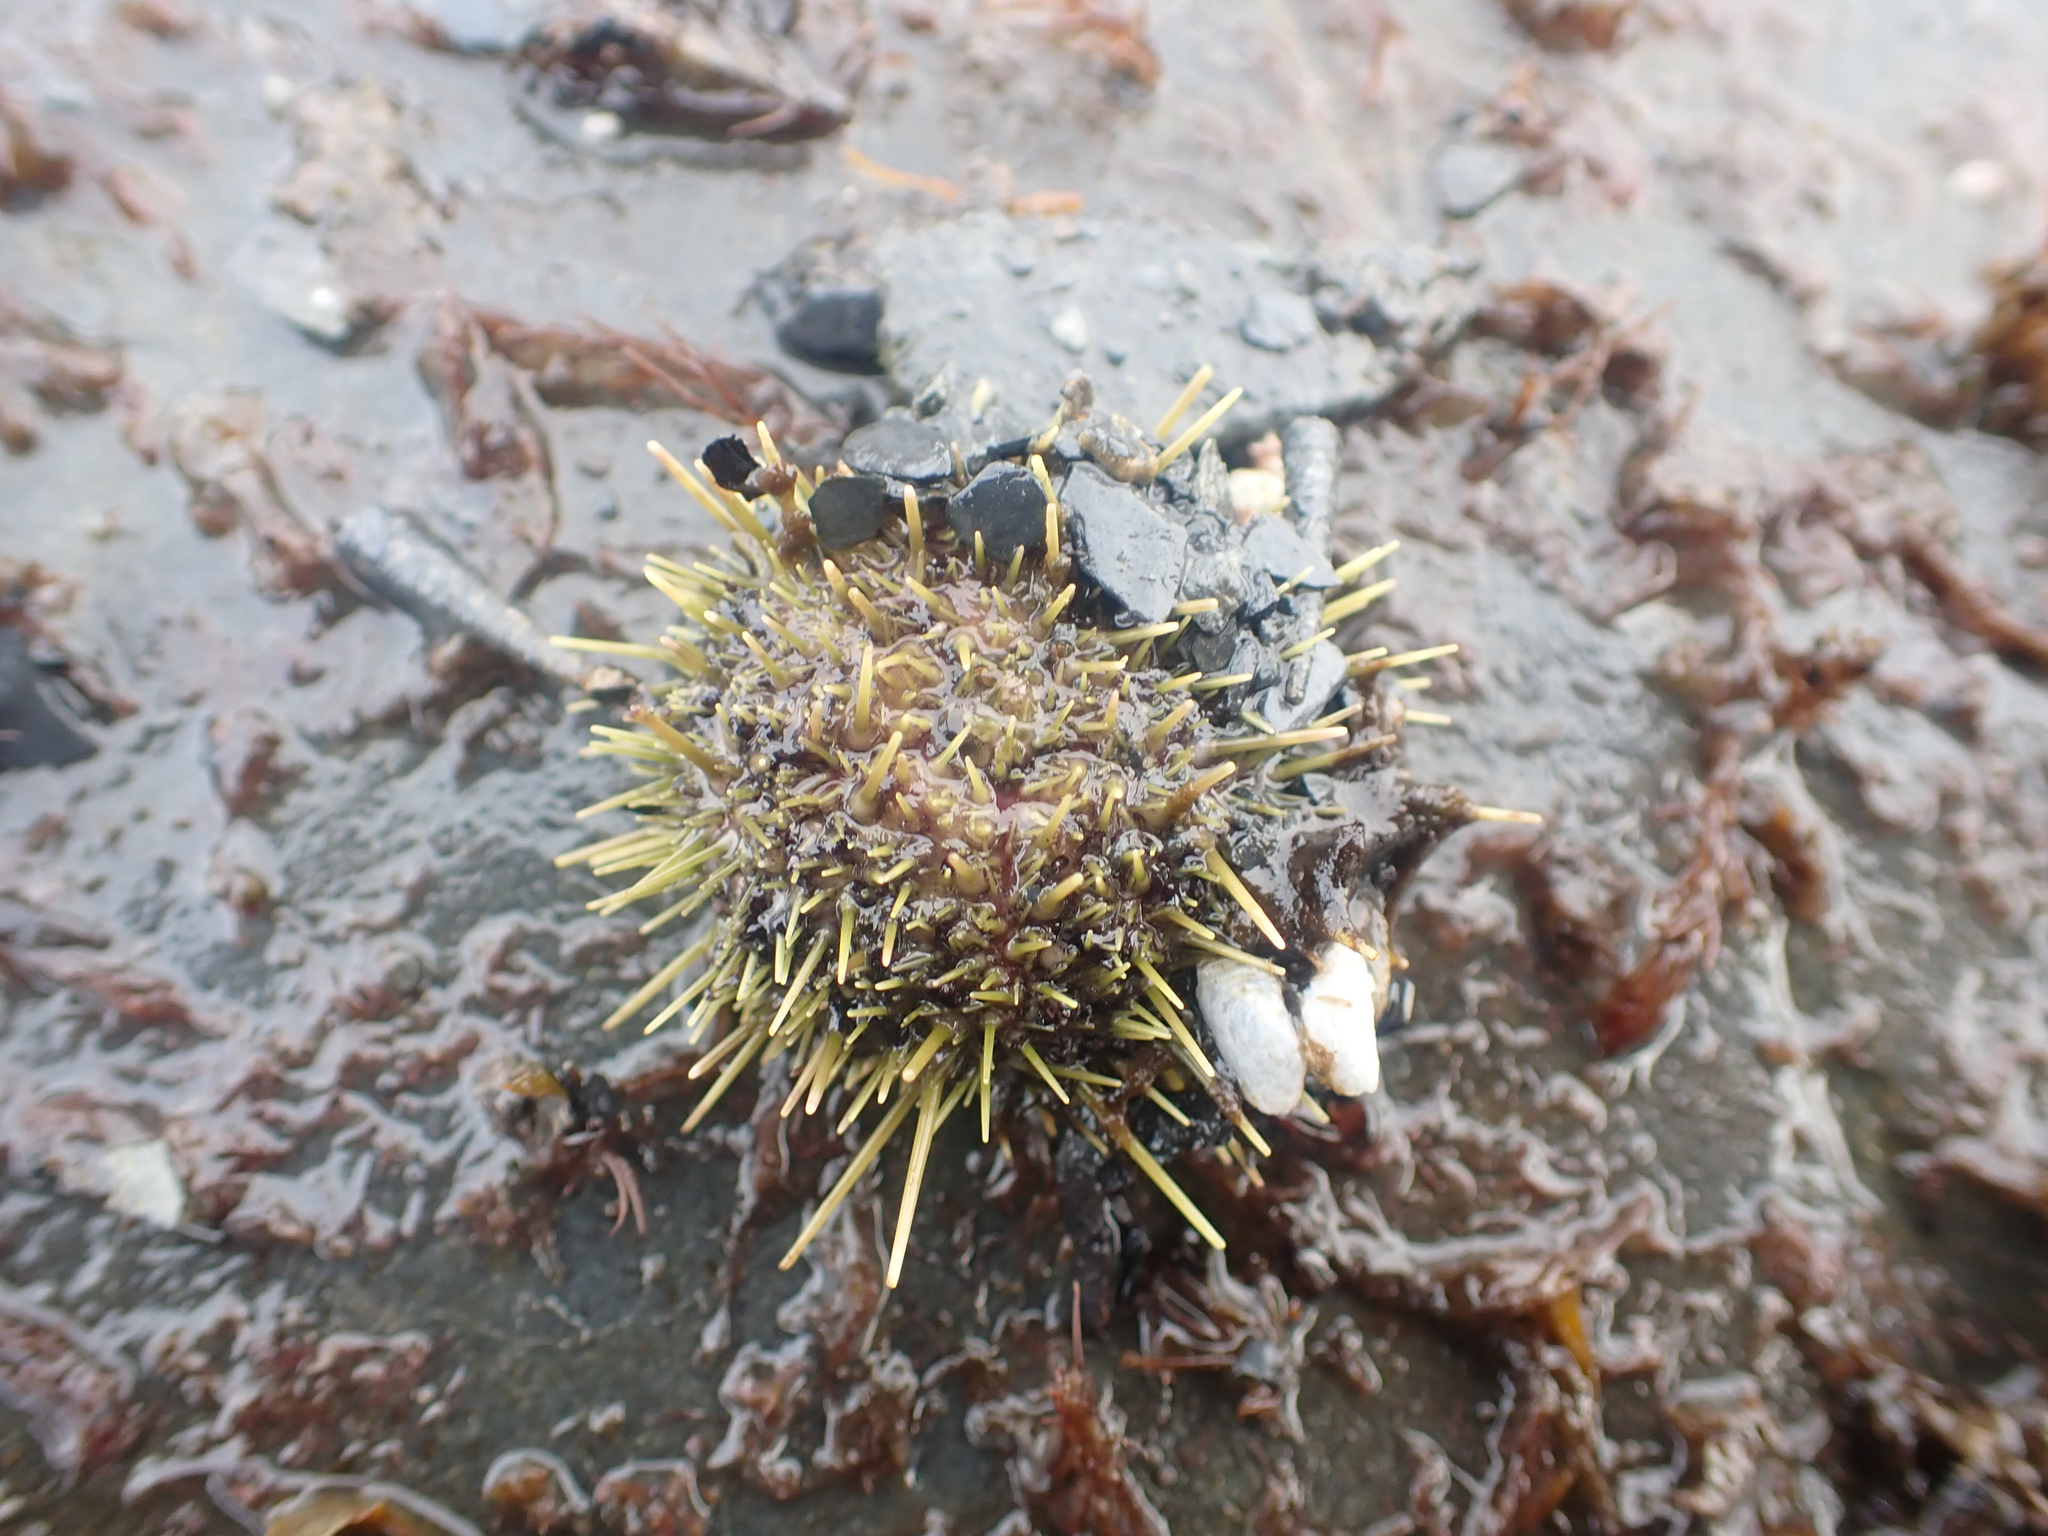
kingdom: Animalia
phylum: Echinodermata
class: Echinoidea
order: Camarodonta
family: Strongylocentrotidae
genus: Strongylocentrotus
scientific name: Strongylocentrotus droebachiensis
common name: Northern sea urchin
